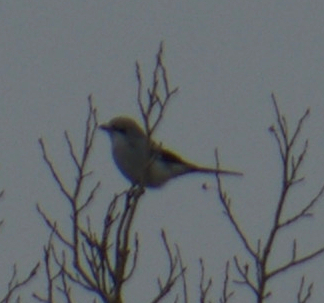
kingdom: Animalia
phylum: Chordata
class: Aves
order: Passeriformes
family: Laniidae
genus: Lanius
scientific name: Lanius borealis
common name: Northern shrike
